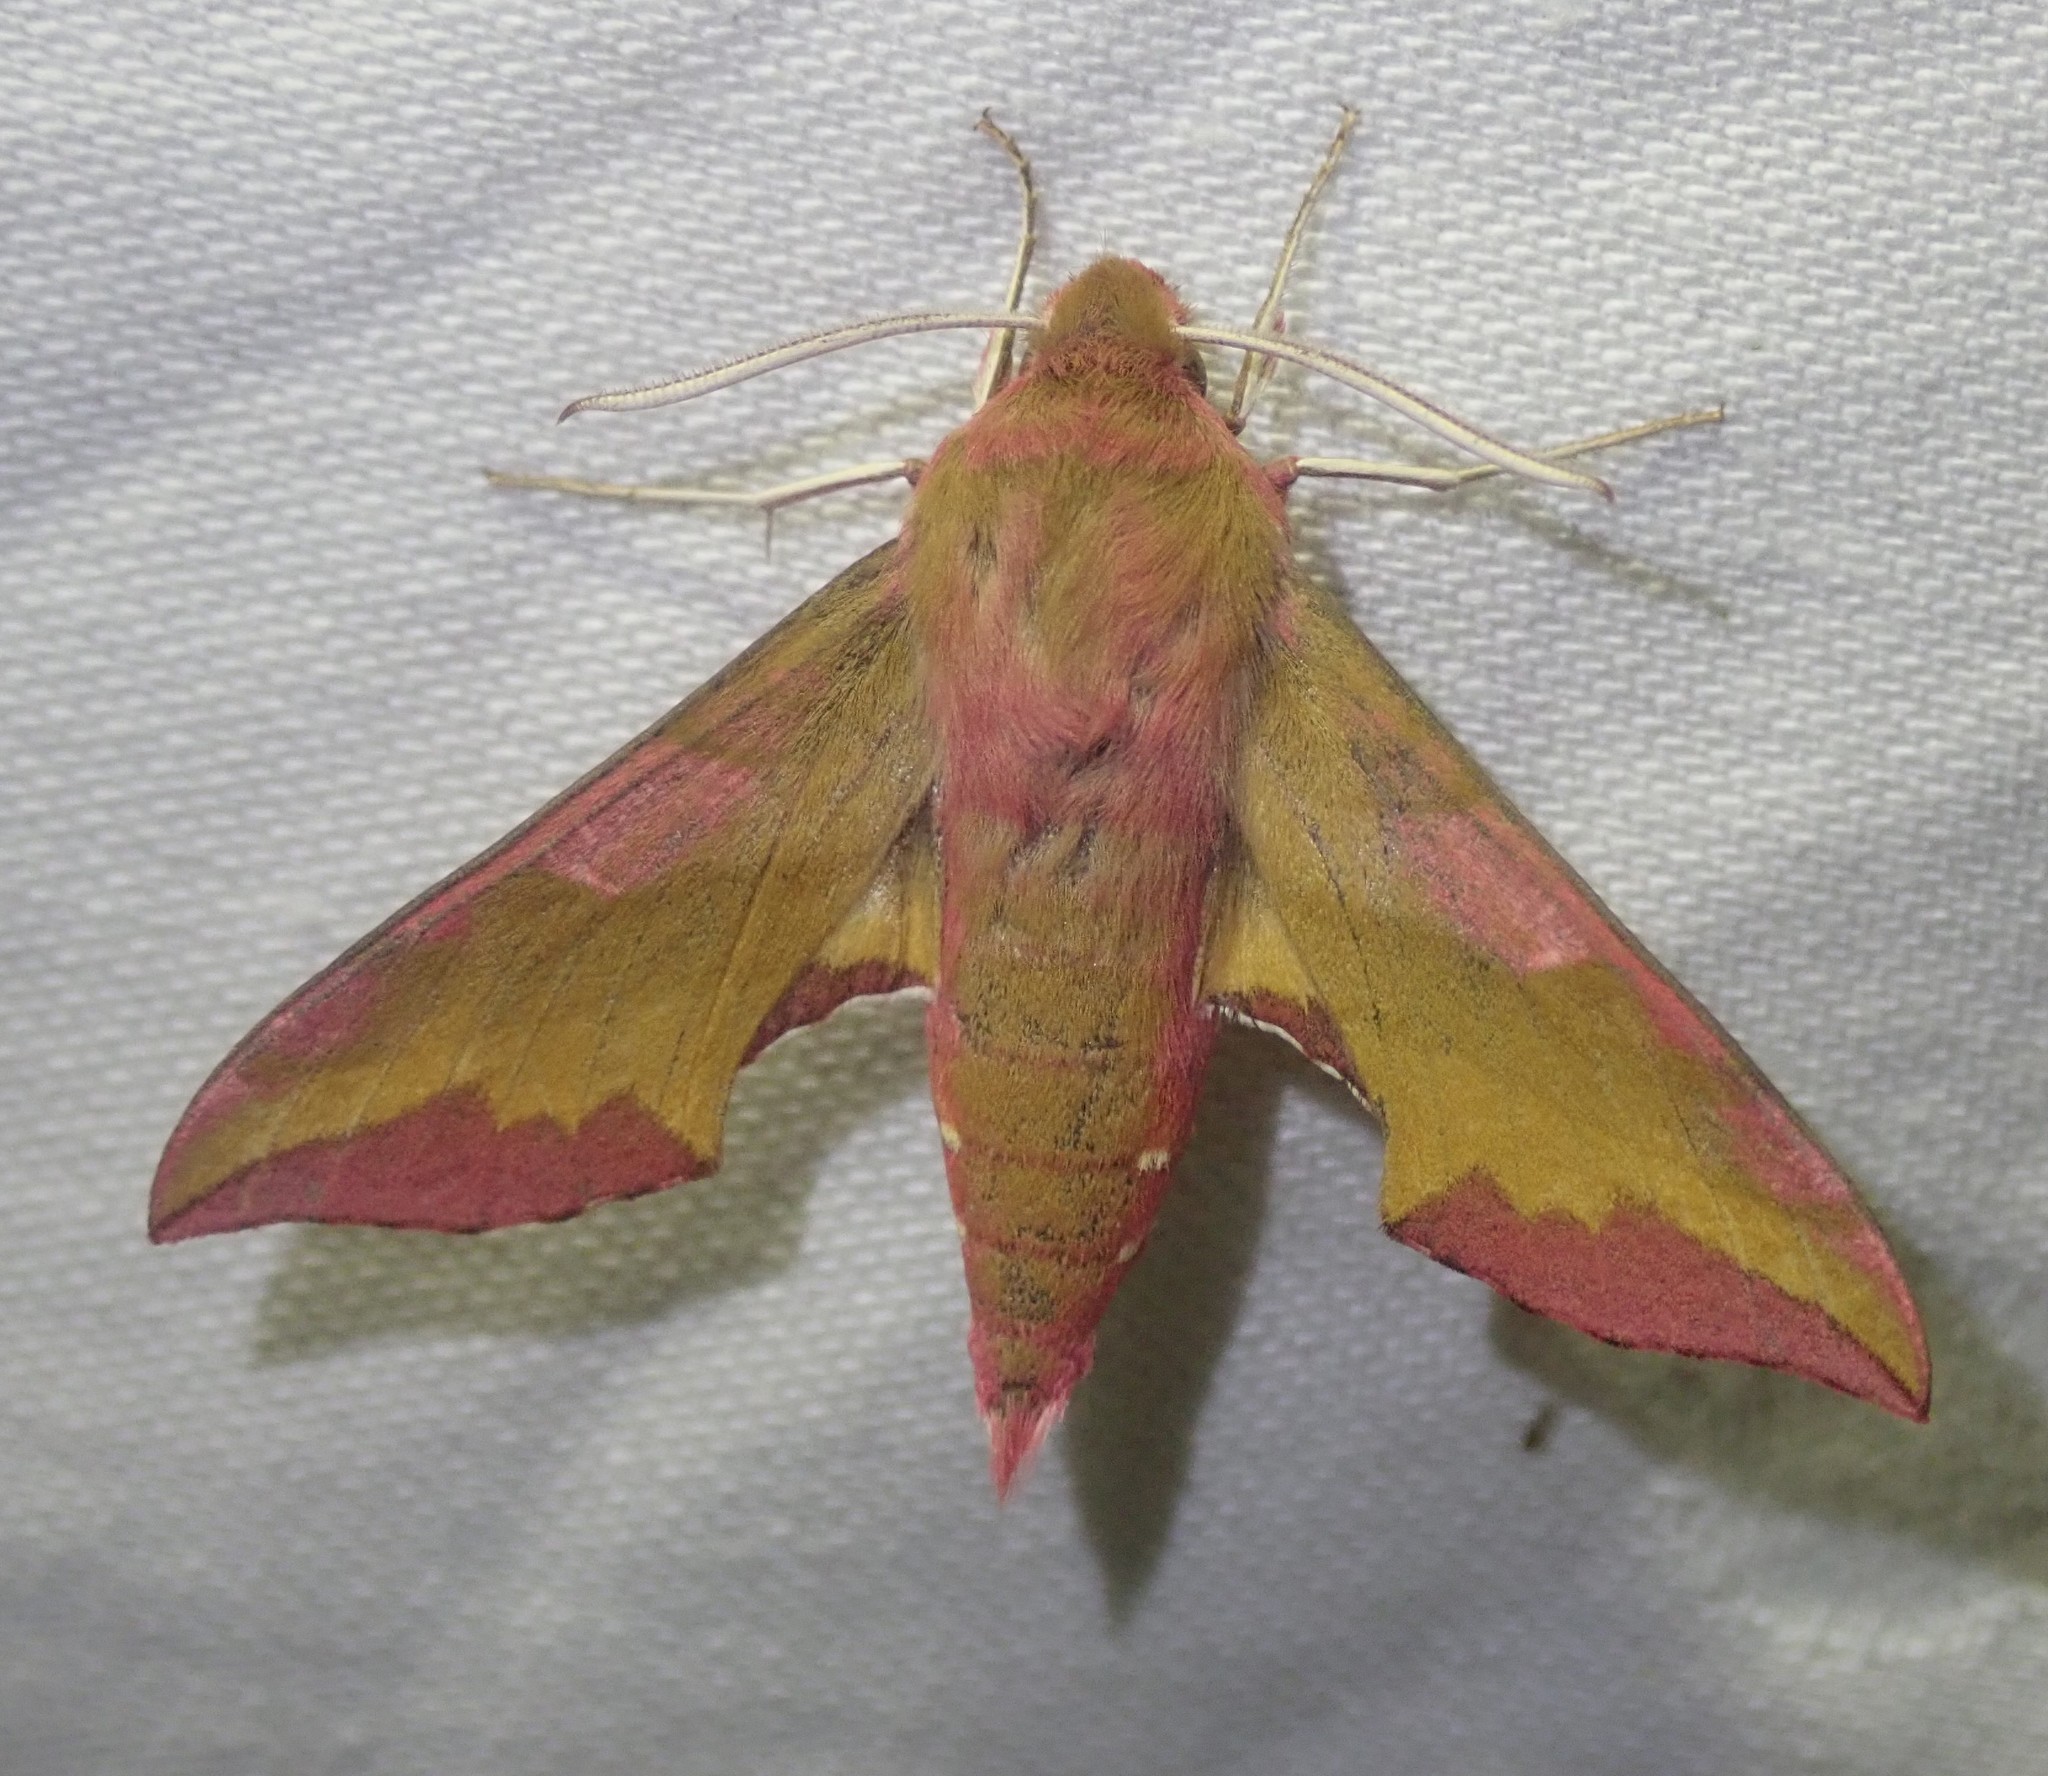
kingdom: Animalia
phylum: Arthropoda
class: Insecta
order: Lepidoptera
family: Sphingidae
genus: Deilephila
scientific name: Deilephila porcellus
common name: Small elephant hawk-moth
